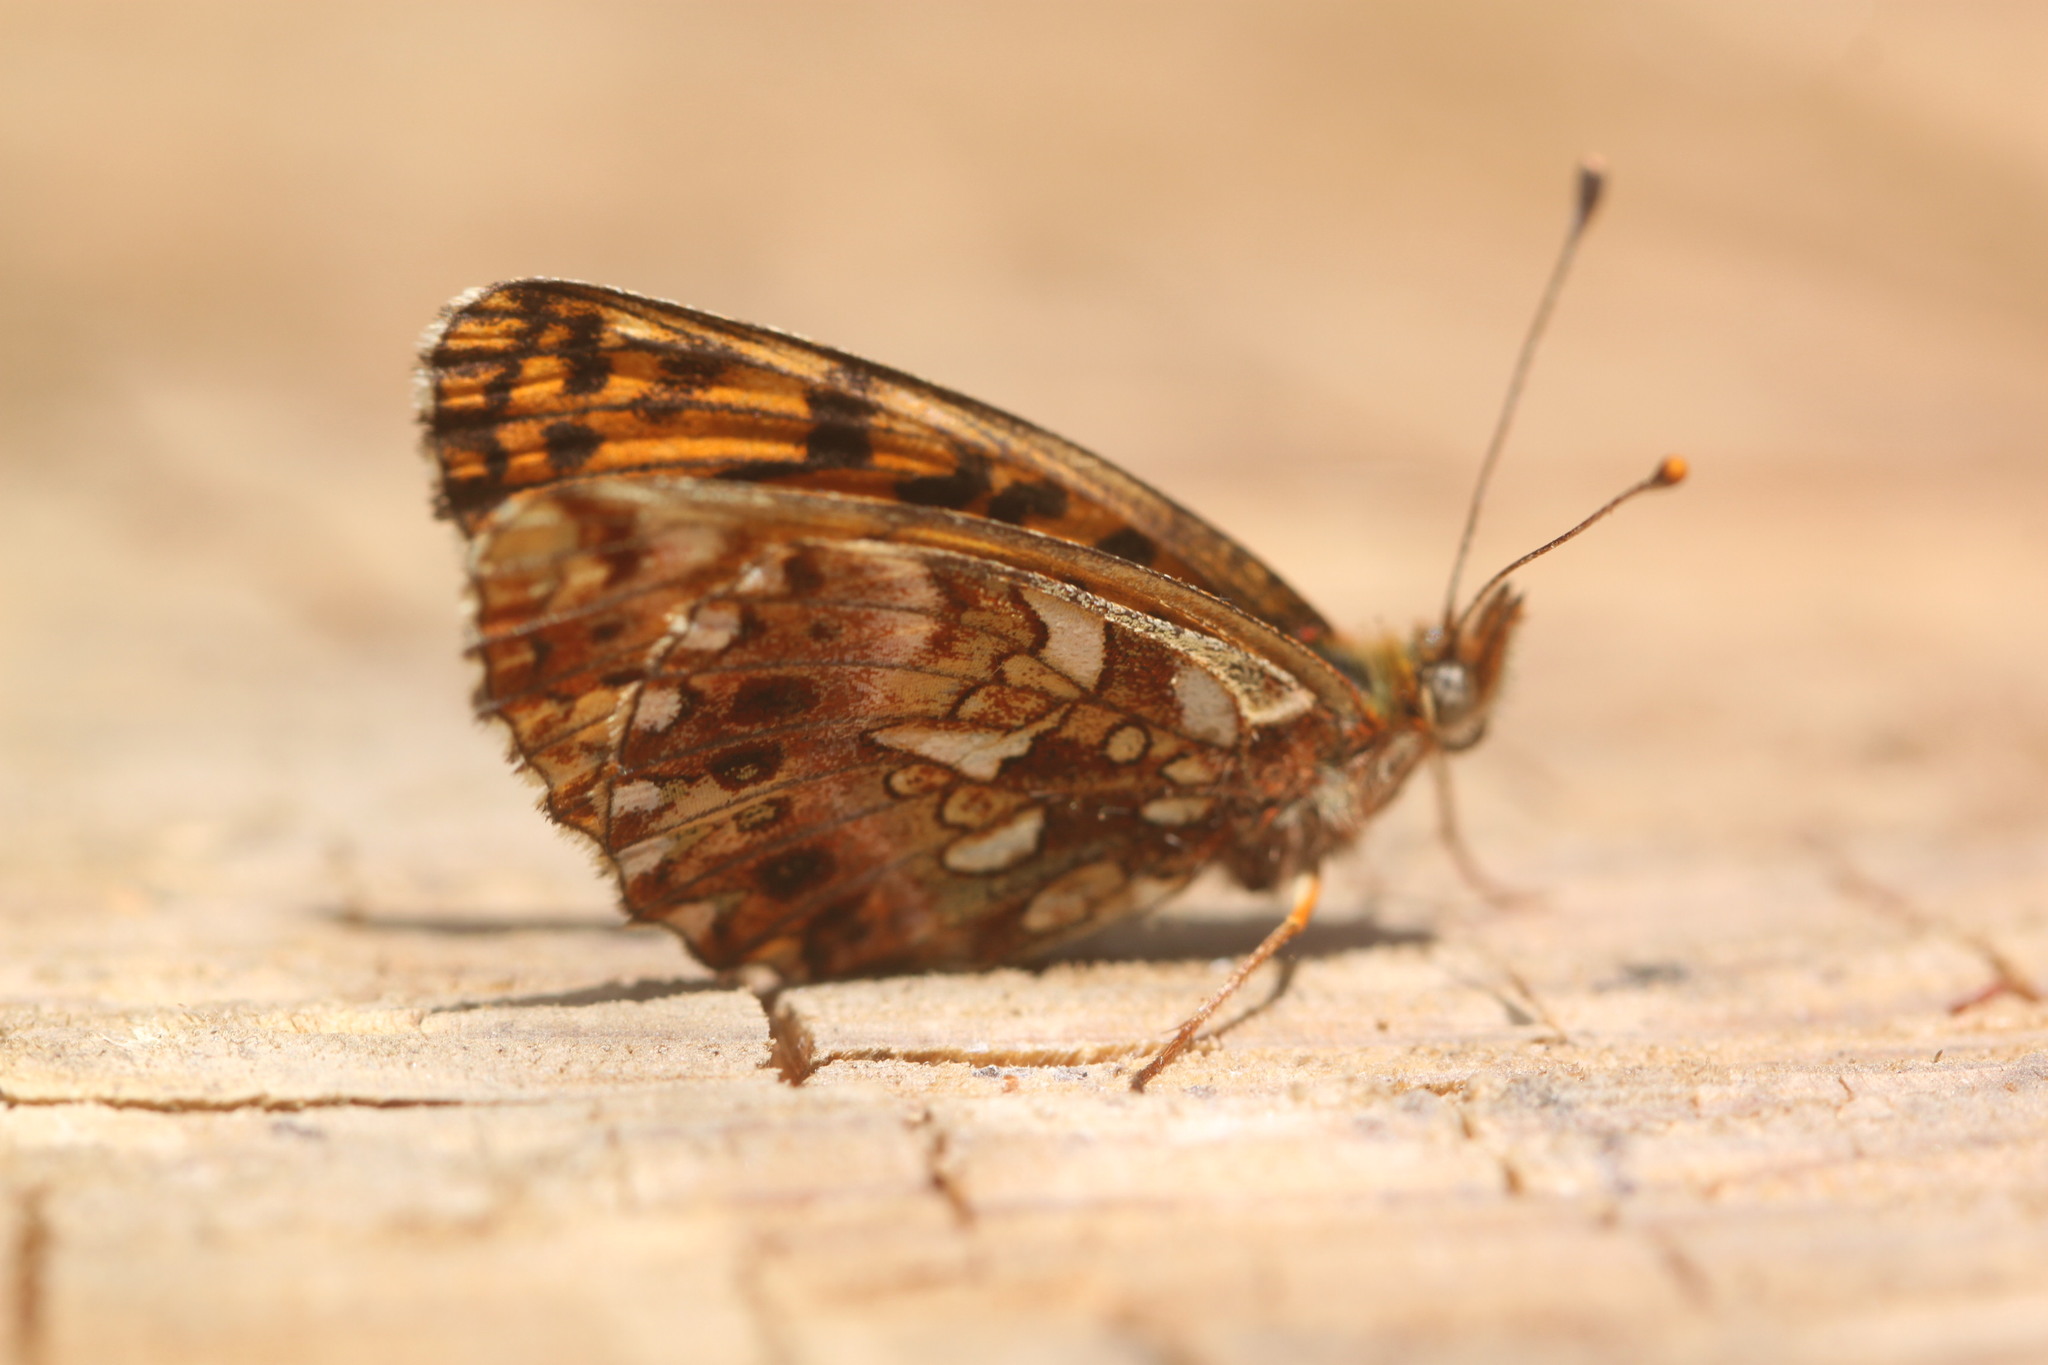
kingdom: Animalia
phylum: Arthropoda
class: Insecta
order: Lepidoptera
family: Nymphalidae
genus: Boloria
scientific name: Boloria dia
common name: Weaver's fritillary
